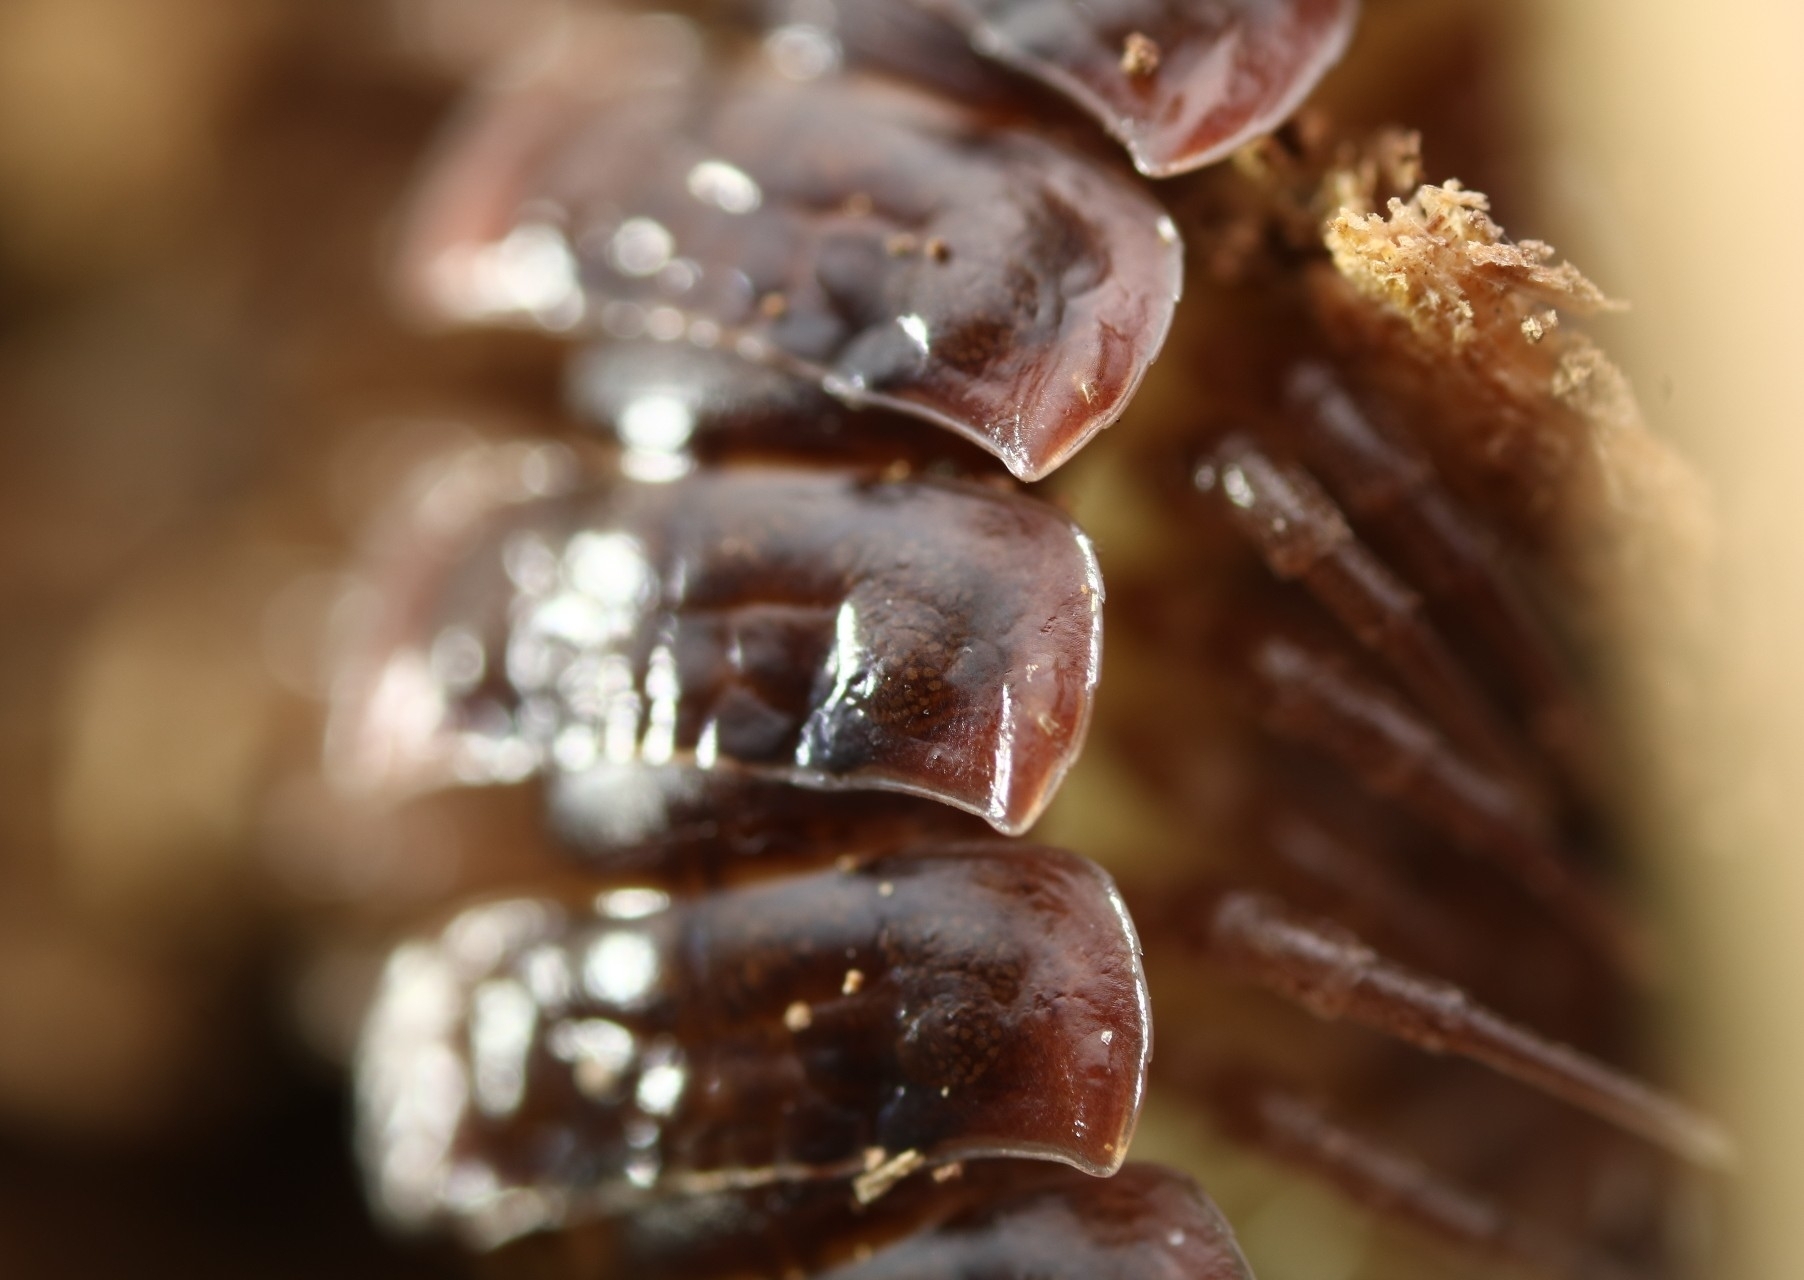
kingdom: Animalia
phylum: Arthropoda
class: Diplopoda
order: Polydesmida
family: Polydesmidae
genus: Pseudopolydesmus
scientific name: Pseudopolydesmus serratus
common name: Common pink flat-back millipede
